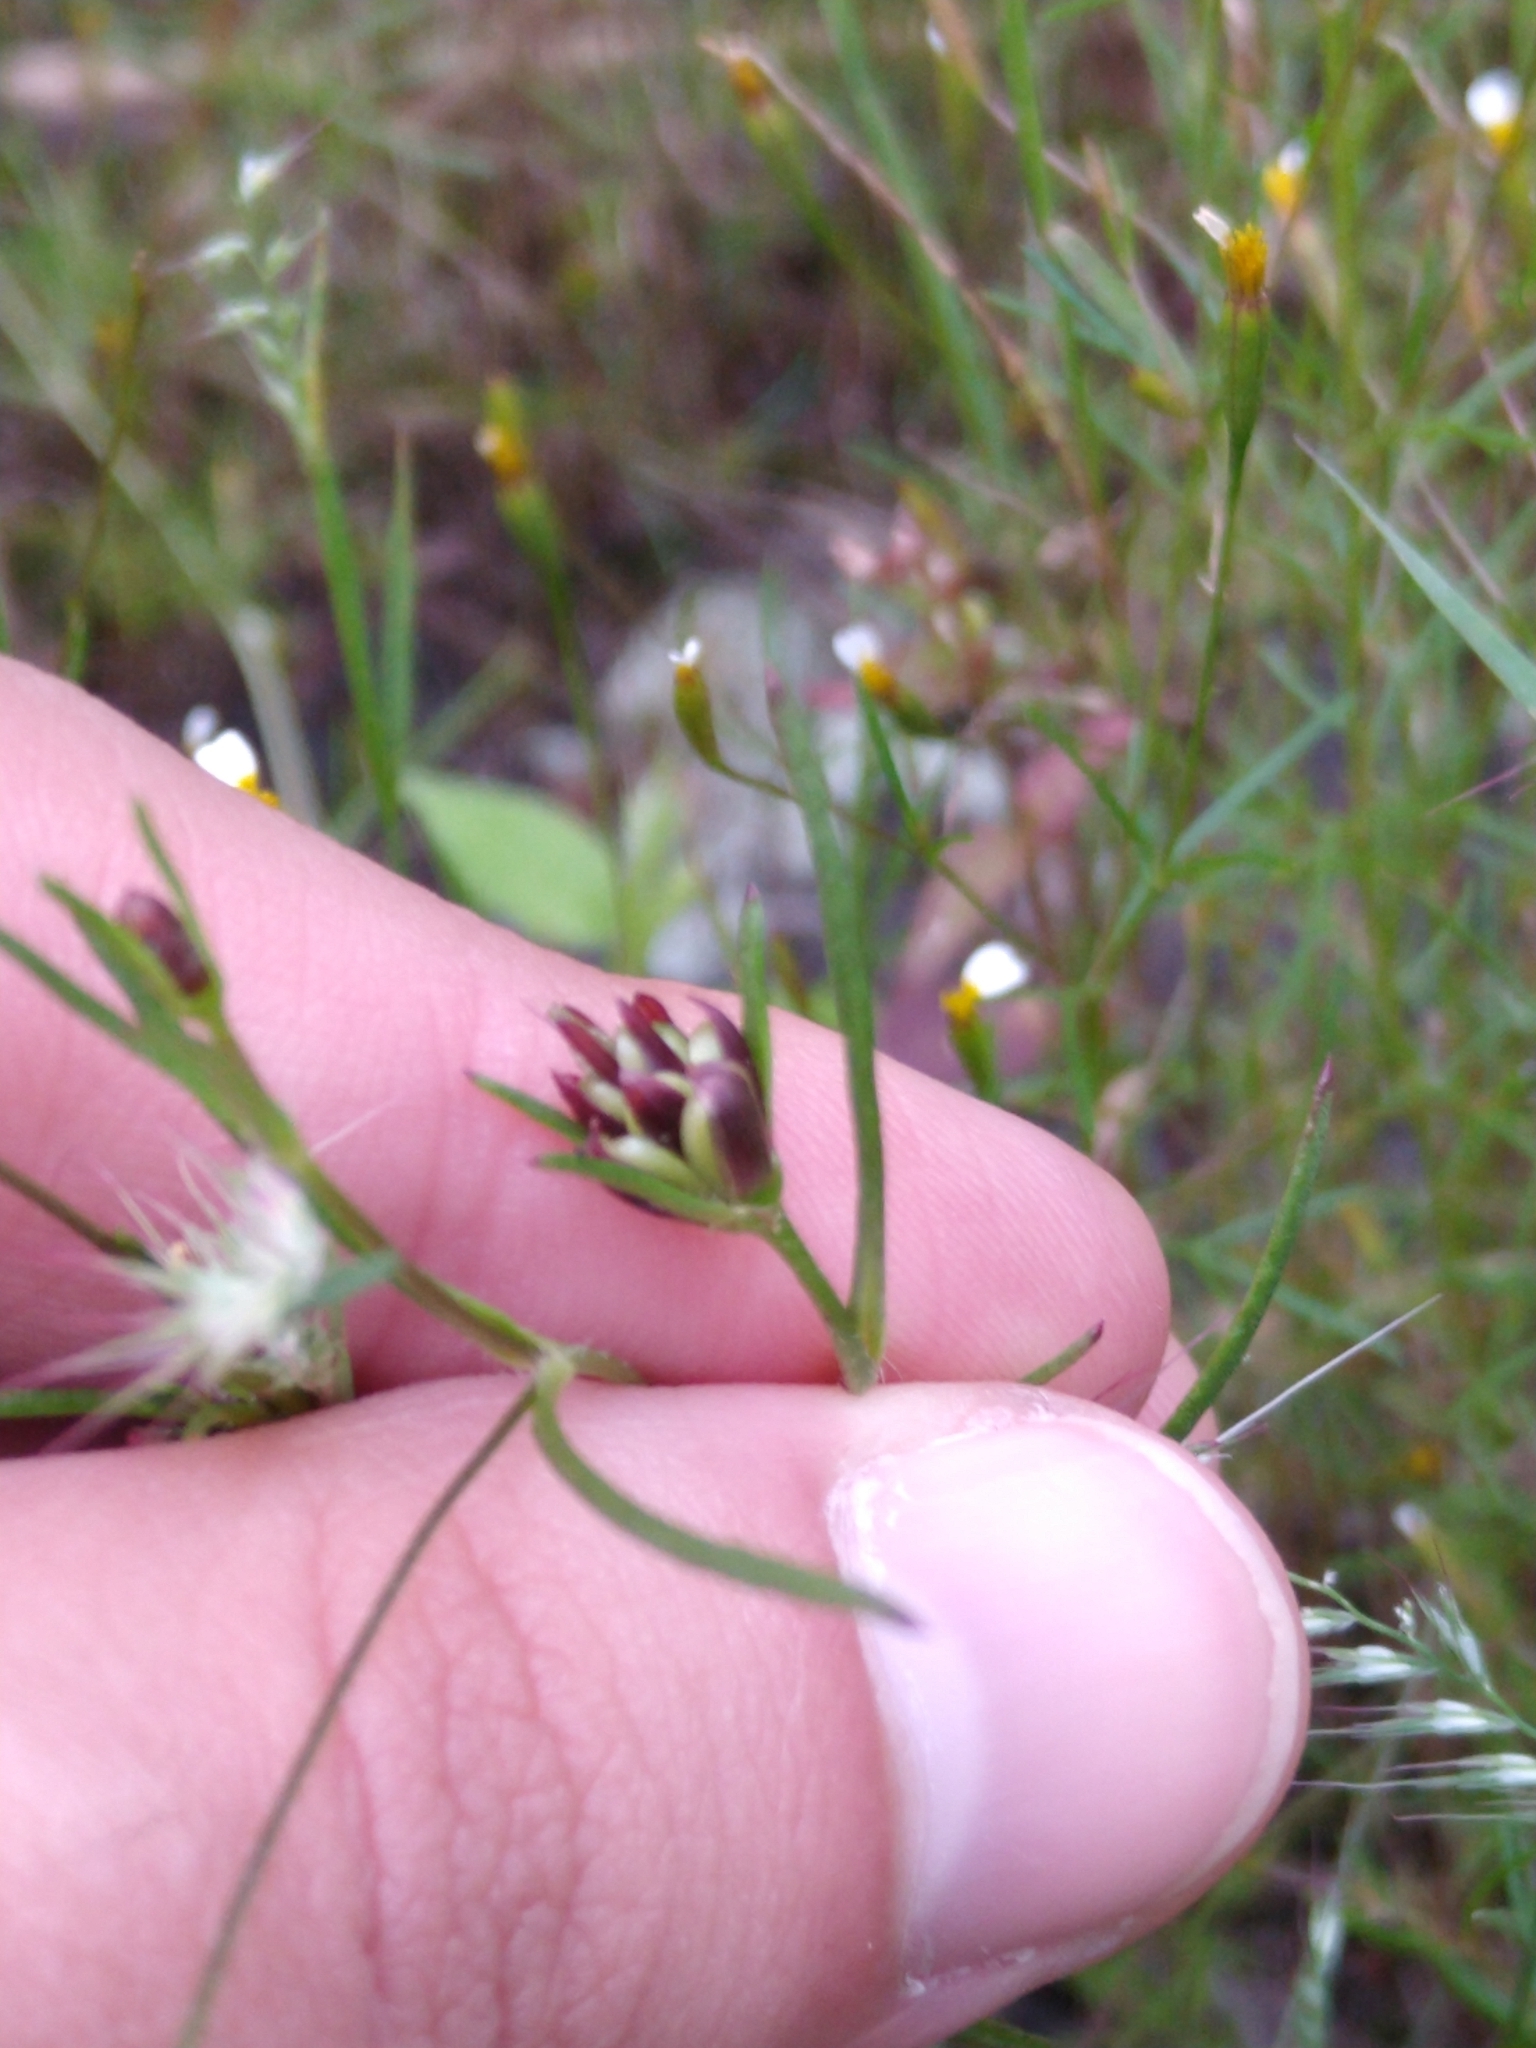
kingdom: Plantae
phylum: Tracheophyta
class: Magnoliopsida
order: Asterales
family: Asteraceae
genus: Heterosperma
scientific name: Heterosperma pinnatum
